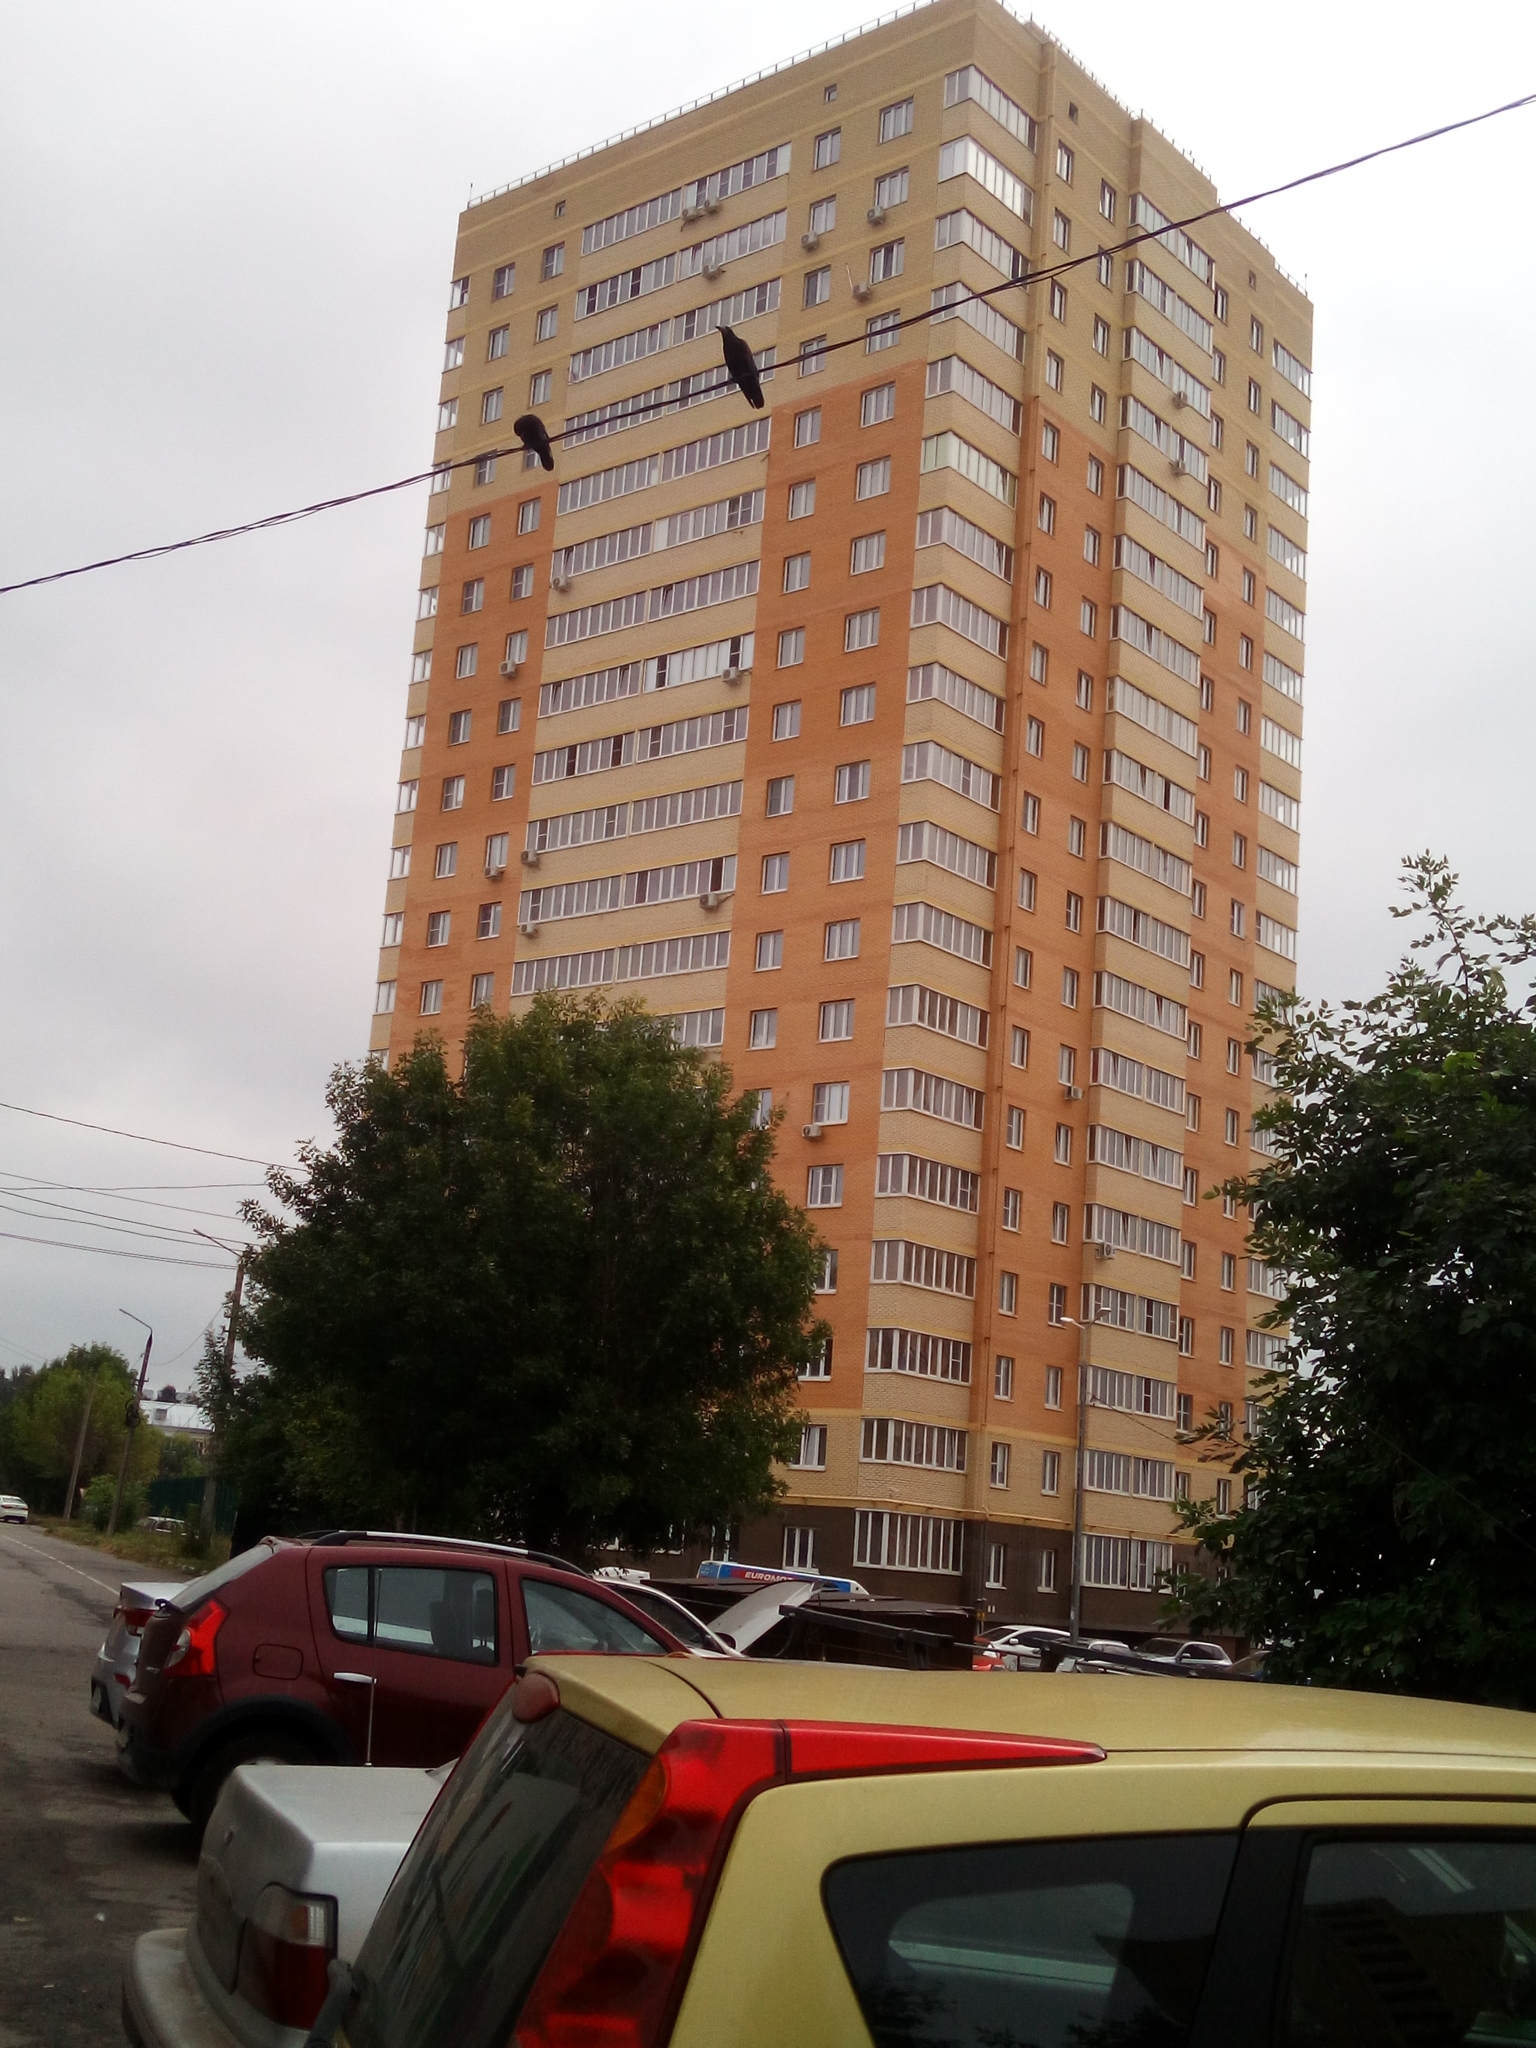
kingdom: Animalia
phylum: Chordata
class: Aves
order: Passeriformes
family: Corvidae
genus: Corvus
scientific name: Corvus frugilegus
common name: Rook
